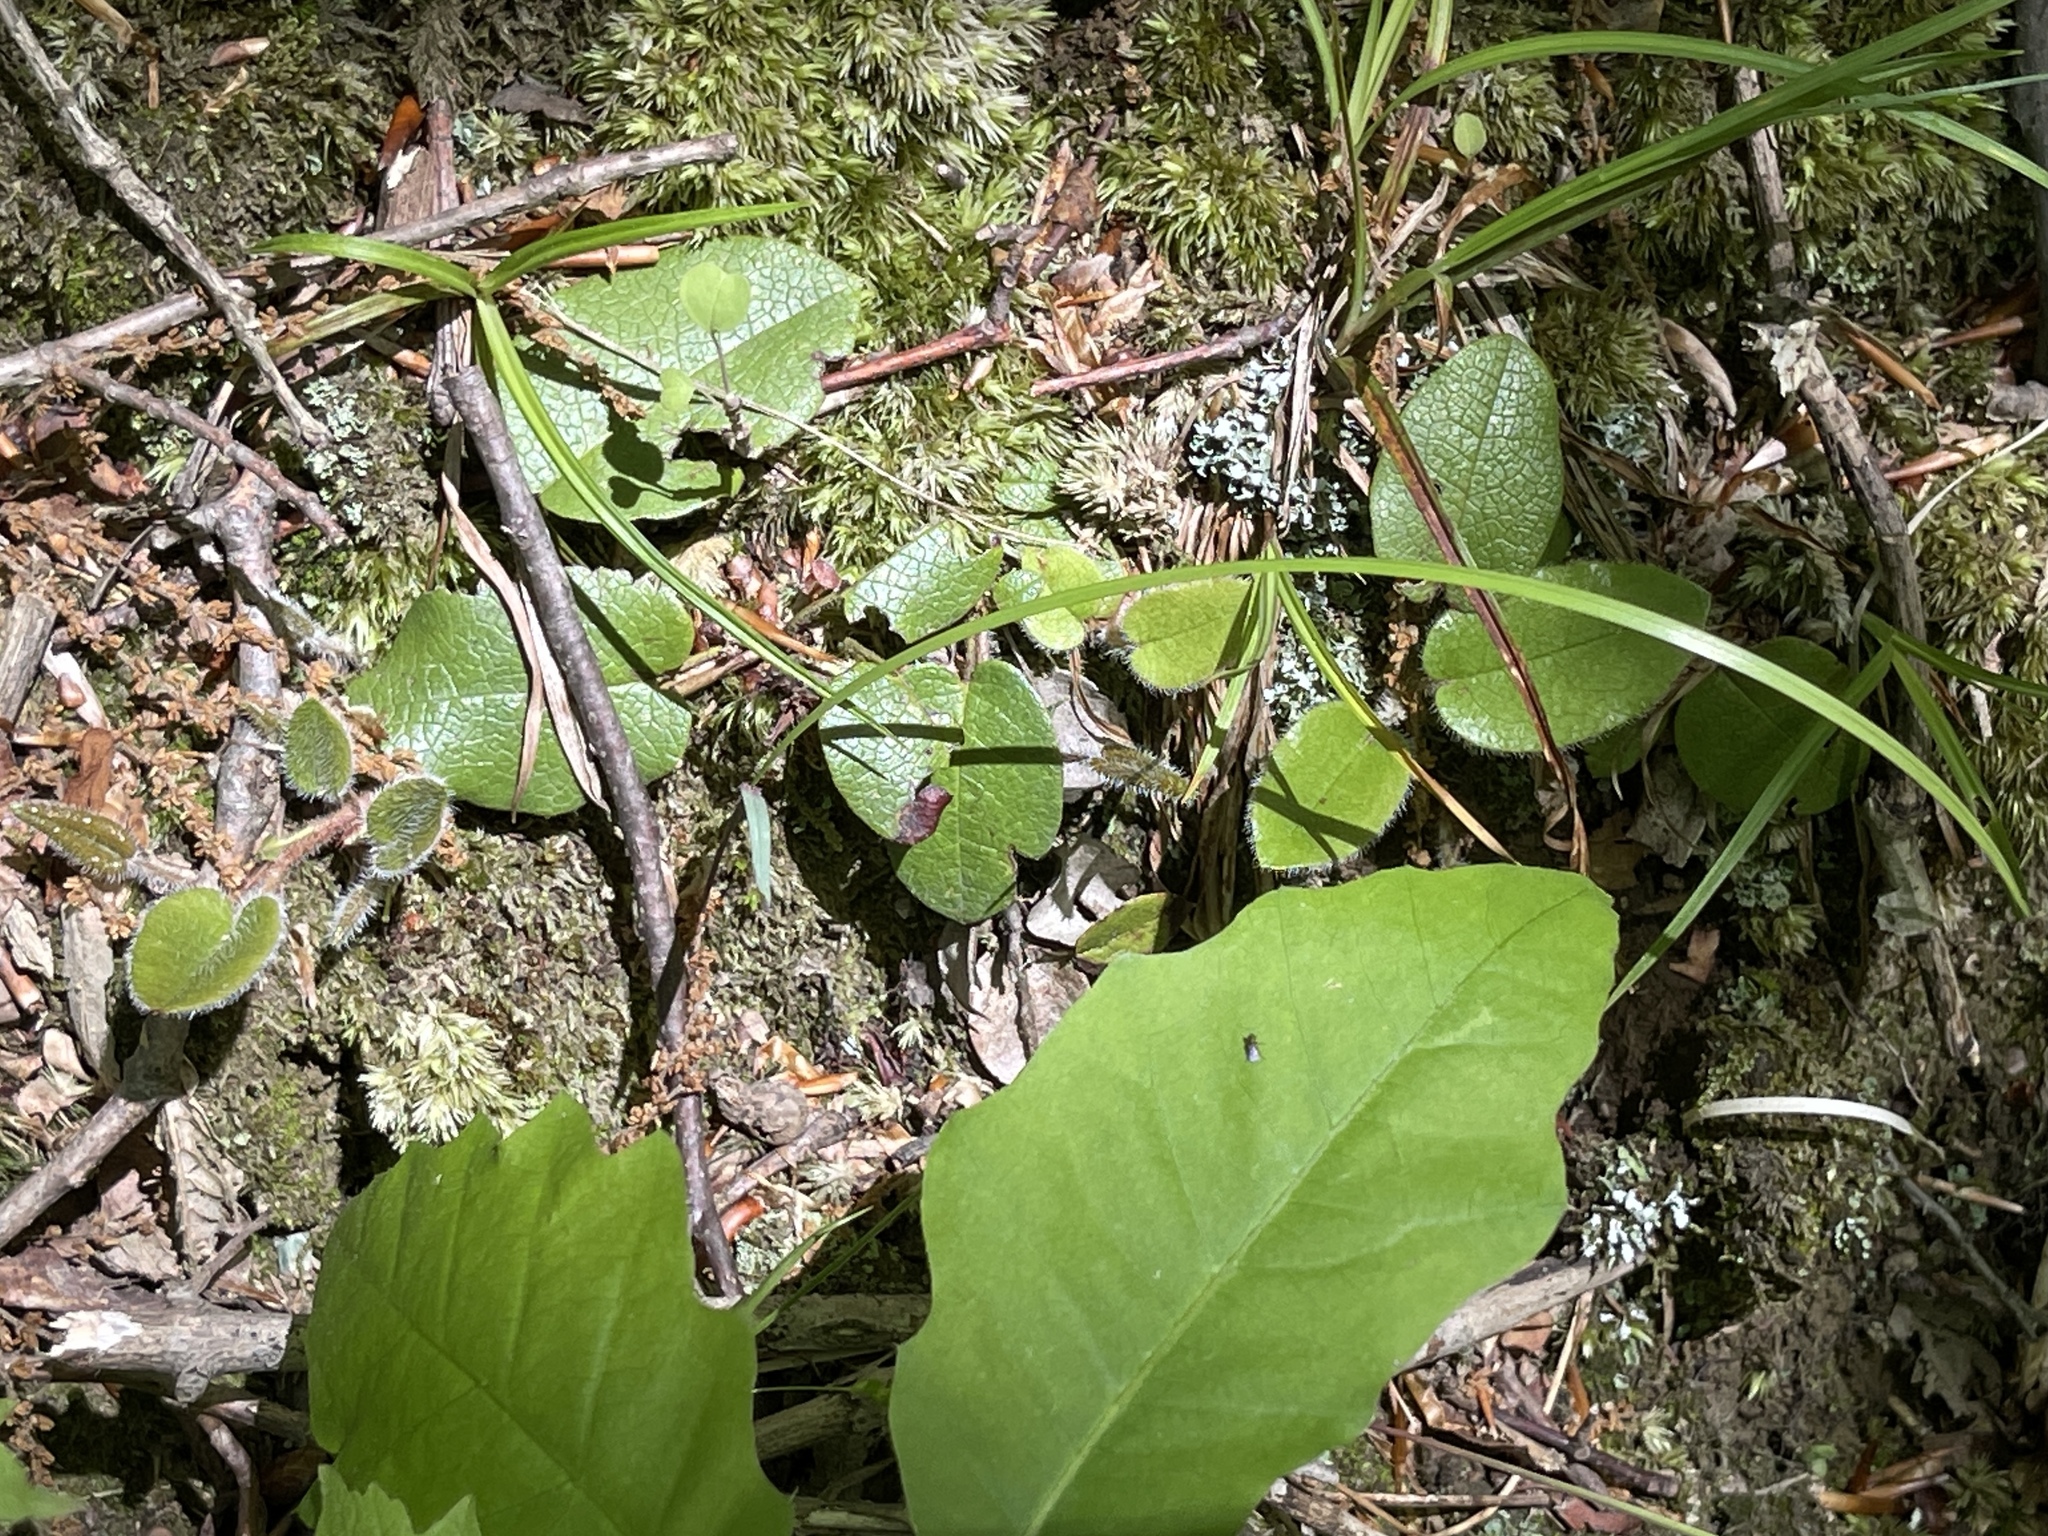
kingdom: Plantae
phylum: Tracheophyta
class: Magnoliopsida
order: Ericales
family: Ericaceae
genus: Epigaea
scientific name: Epigaea repens
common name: Gravelroot
